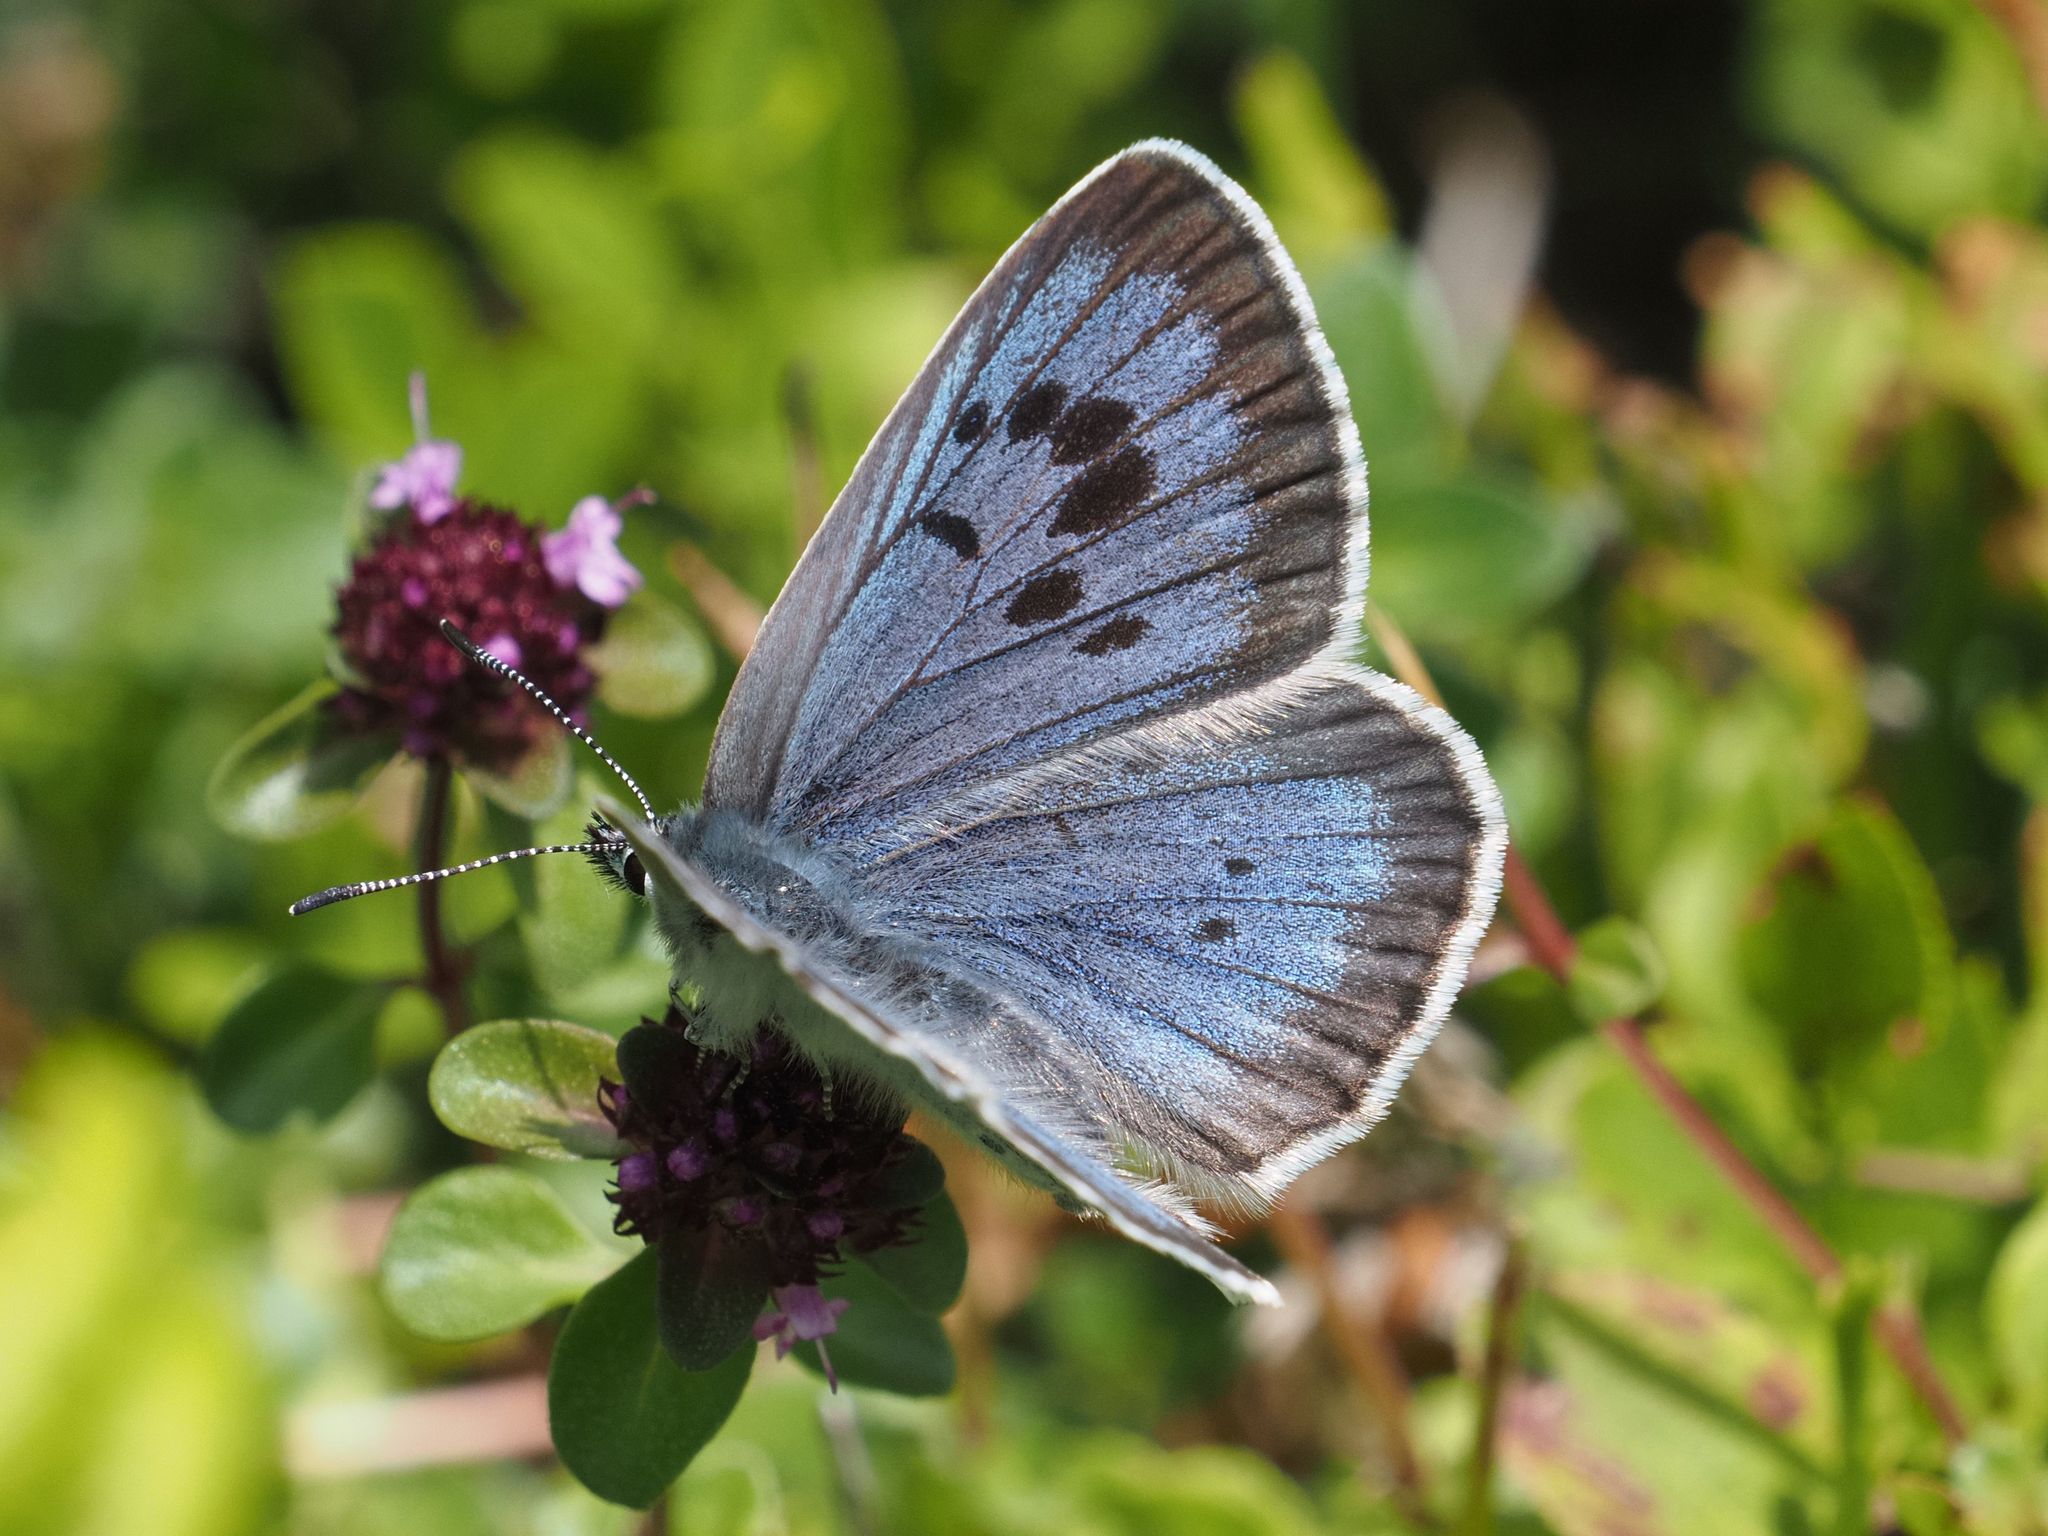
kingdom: Animalia
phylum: Arthropoda
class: Insecta
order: Lepidoptera
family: Lycaenidae
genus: Maculinea
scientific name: Maculinea arion
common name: Large blue
